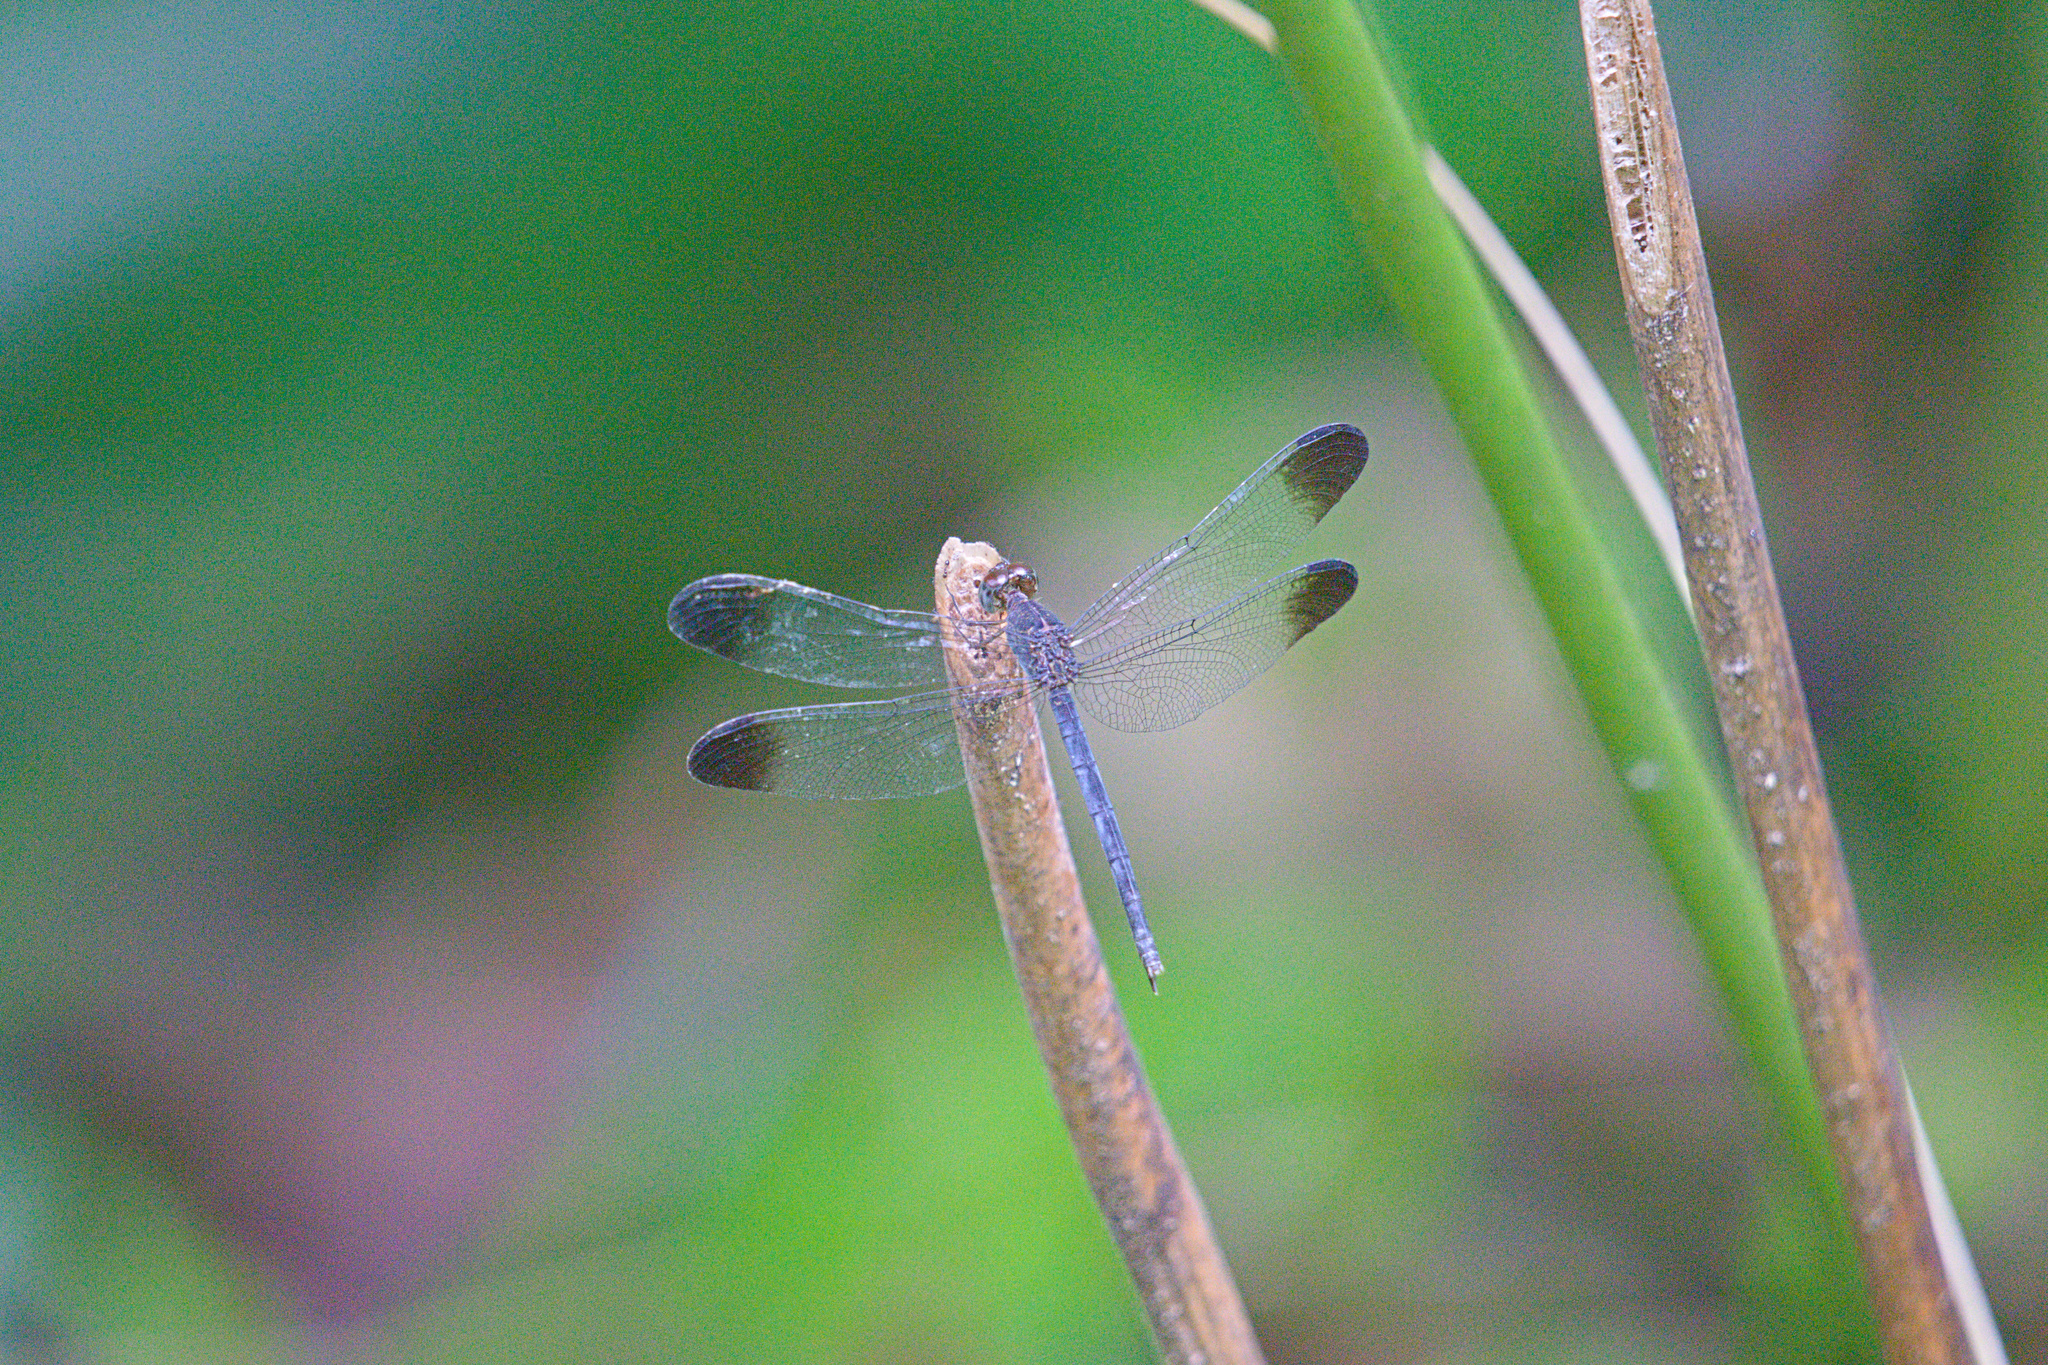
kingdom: Animalia
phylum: Arthropoda
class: Insecta
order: Odonata
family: Libellulidae
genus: Uracis
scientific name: Uracis fastigiata
